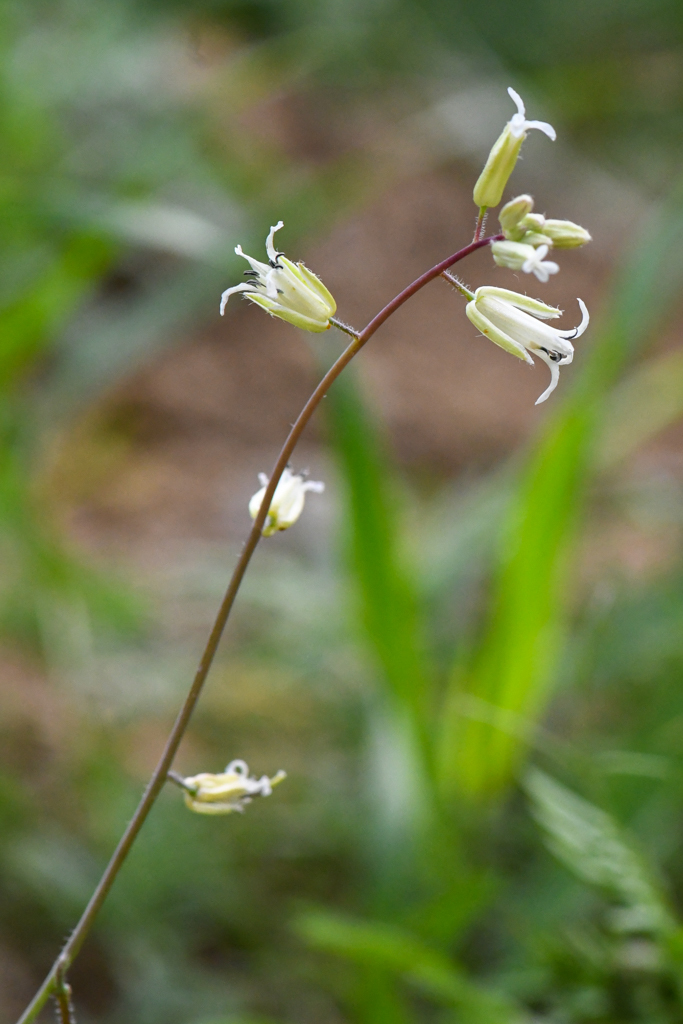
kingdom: Plantae
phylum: Tracheophyta
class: Magnoliopsida
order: Brassicales
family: Brassicaceae
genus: Streptanthus
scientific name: Streptanthus flavescens
